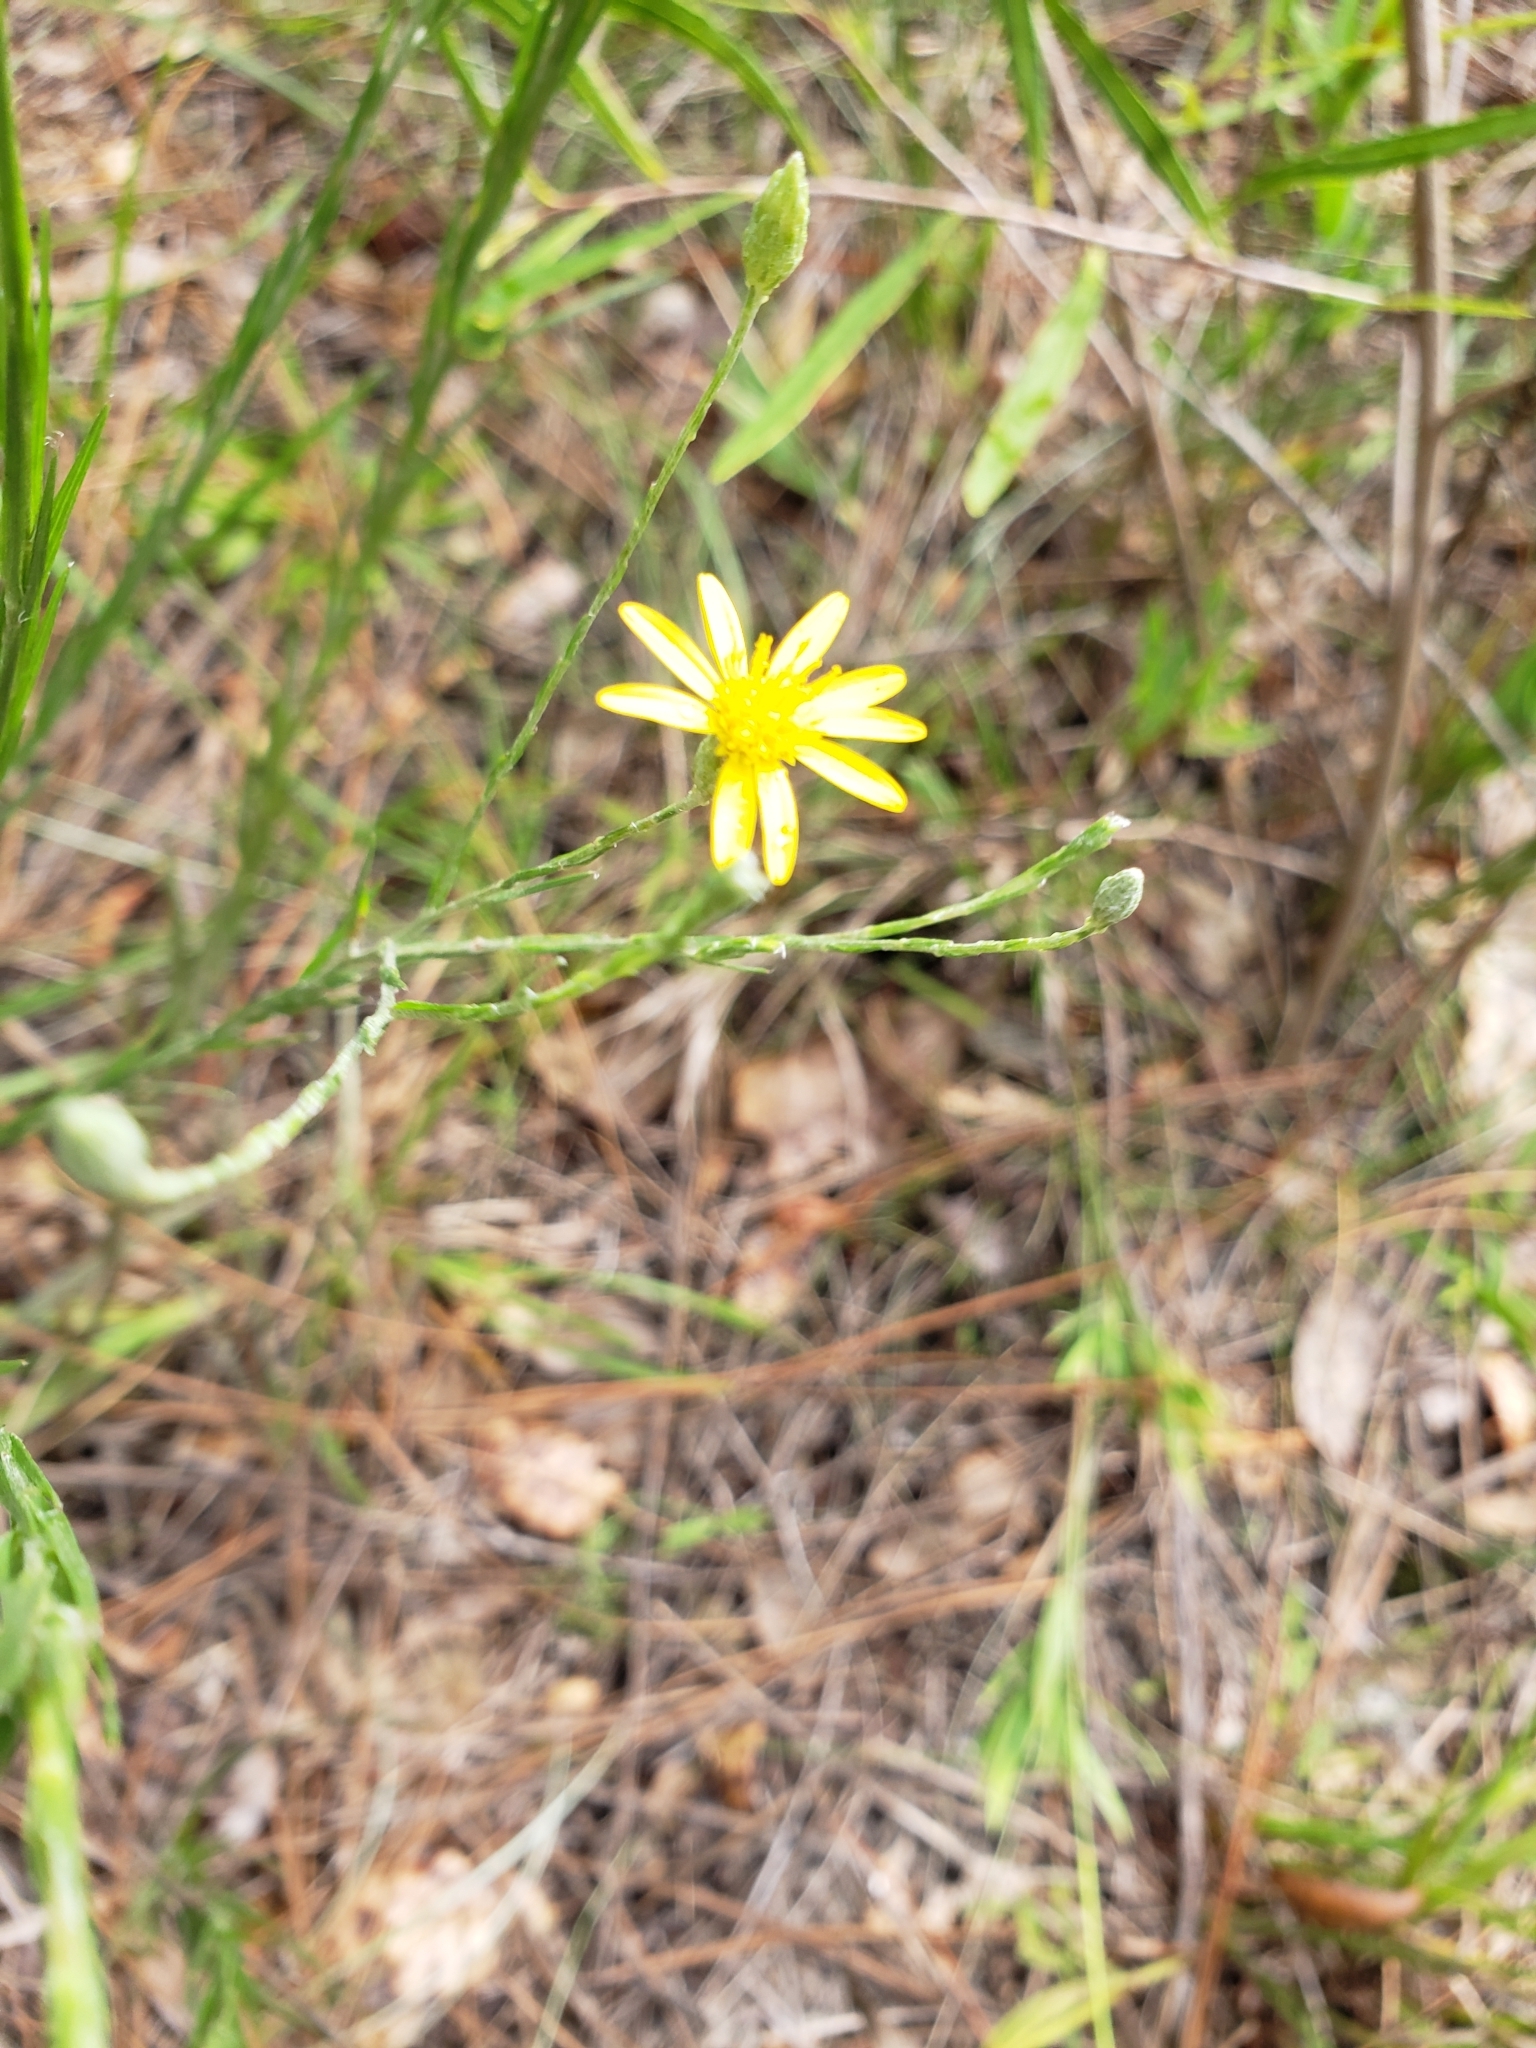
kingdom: Plantae
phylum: Tracheophyta
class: Magnoliopsida
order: Asterales
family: Asteraceae
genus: Pityopsis
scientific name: Pityopsis graminifolia
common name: Grass-leaf golden-aster
